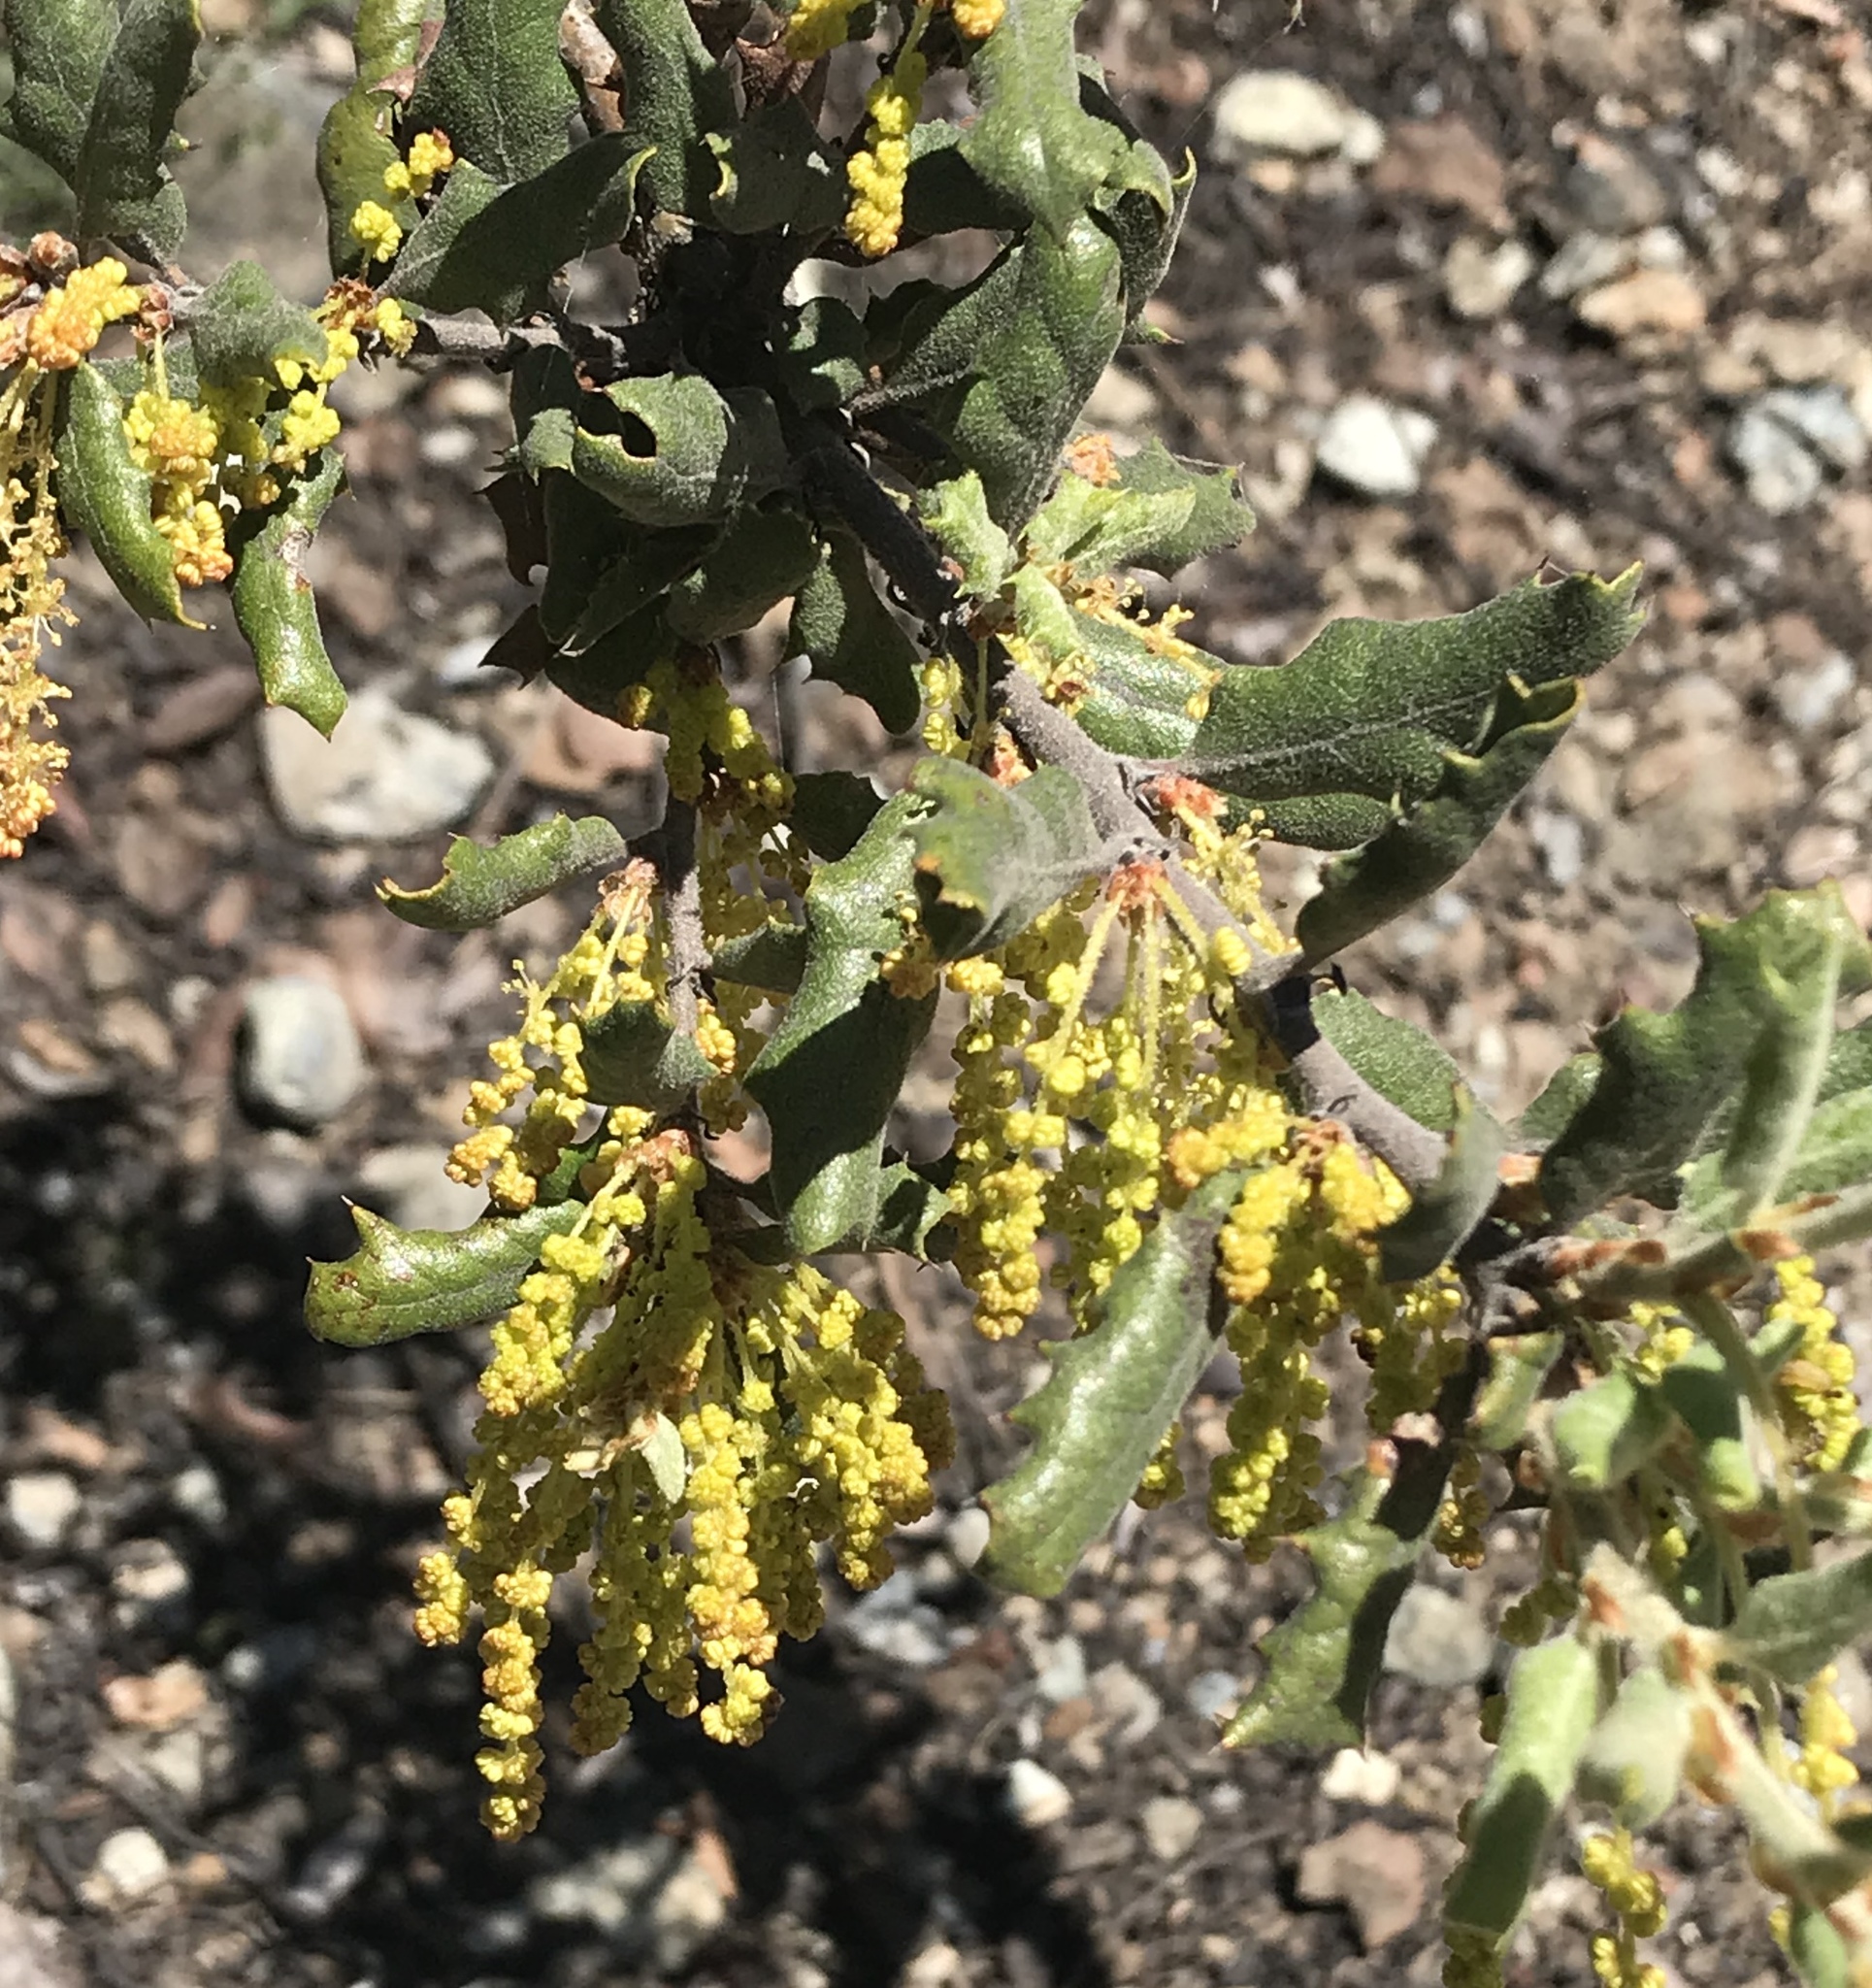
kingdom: Plantae
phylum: Tracheophyta
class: Magnoliopsida
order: Fagales
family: Fagaceae
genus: Quercus
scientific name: Quercus durata
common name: Leather oak
